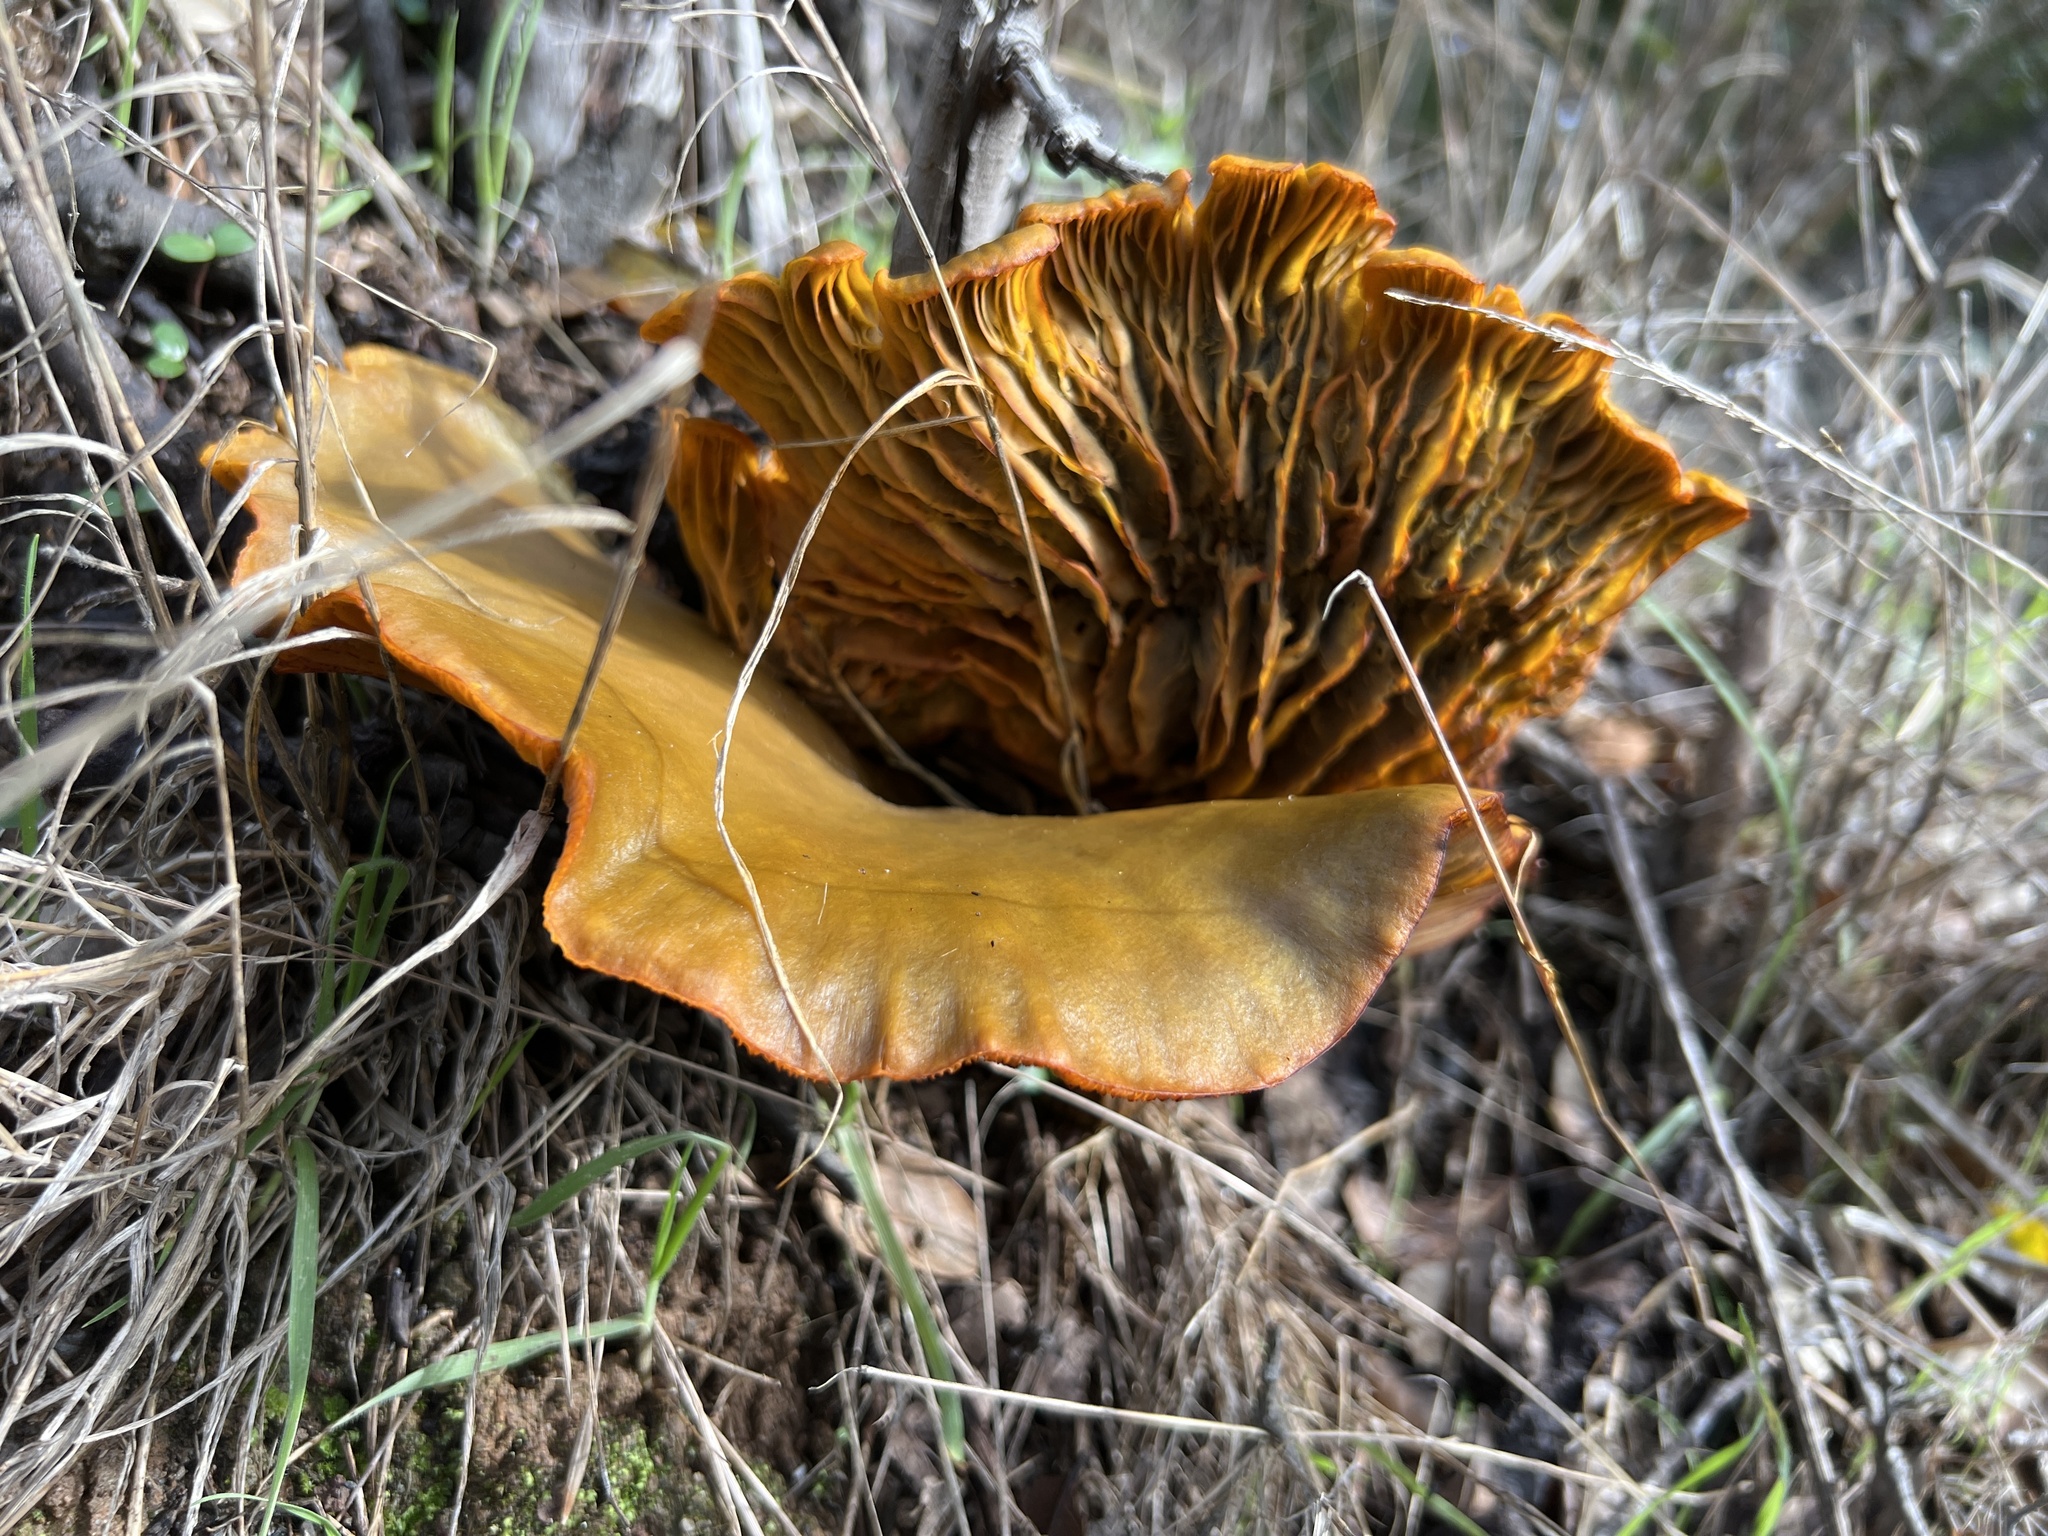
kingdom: Fungi
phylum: Basidiomycota
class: Agaricomycetes
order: Agaricales
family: Omphalotaceae
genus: Omphalotus
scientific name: Omphalotus olivascens
